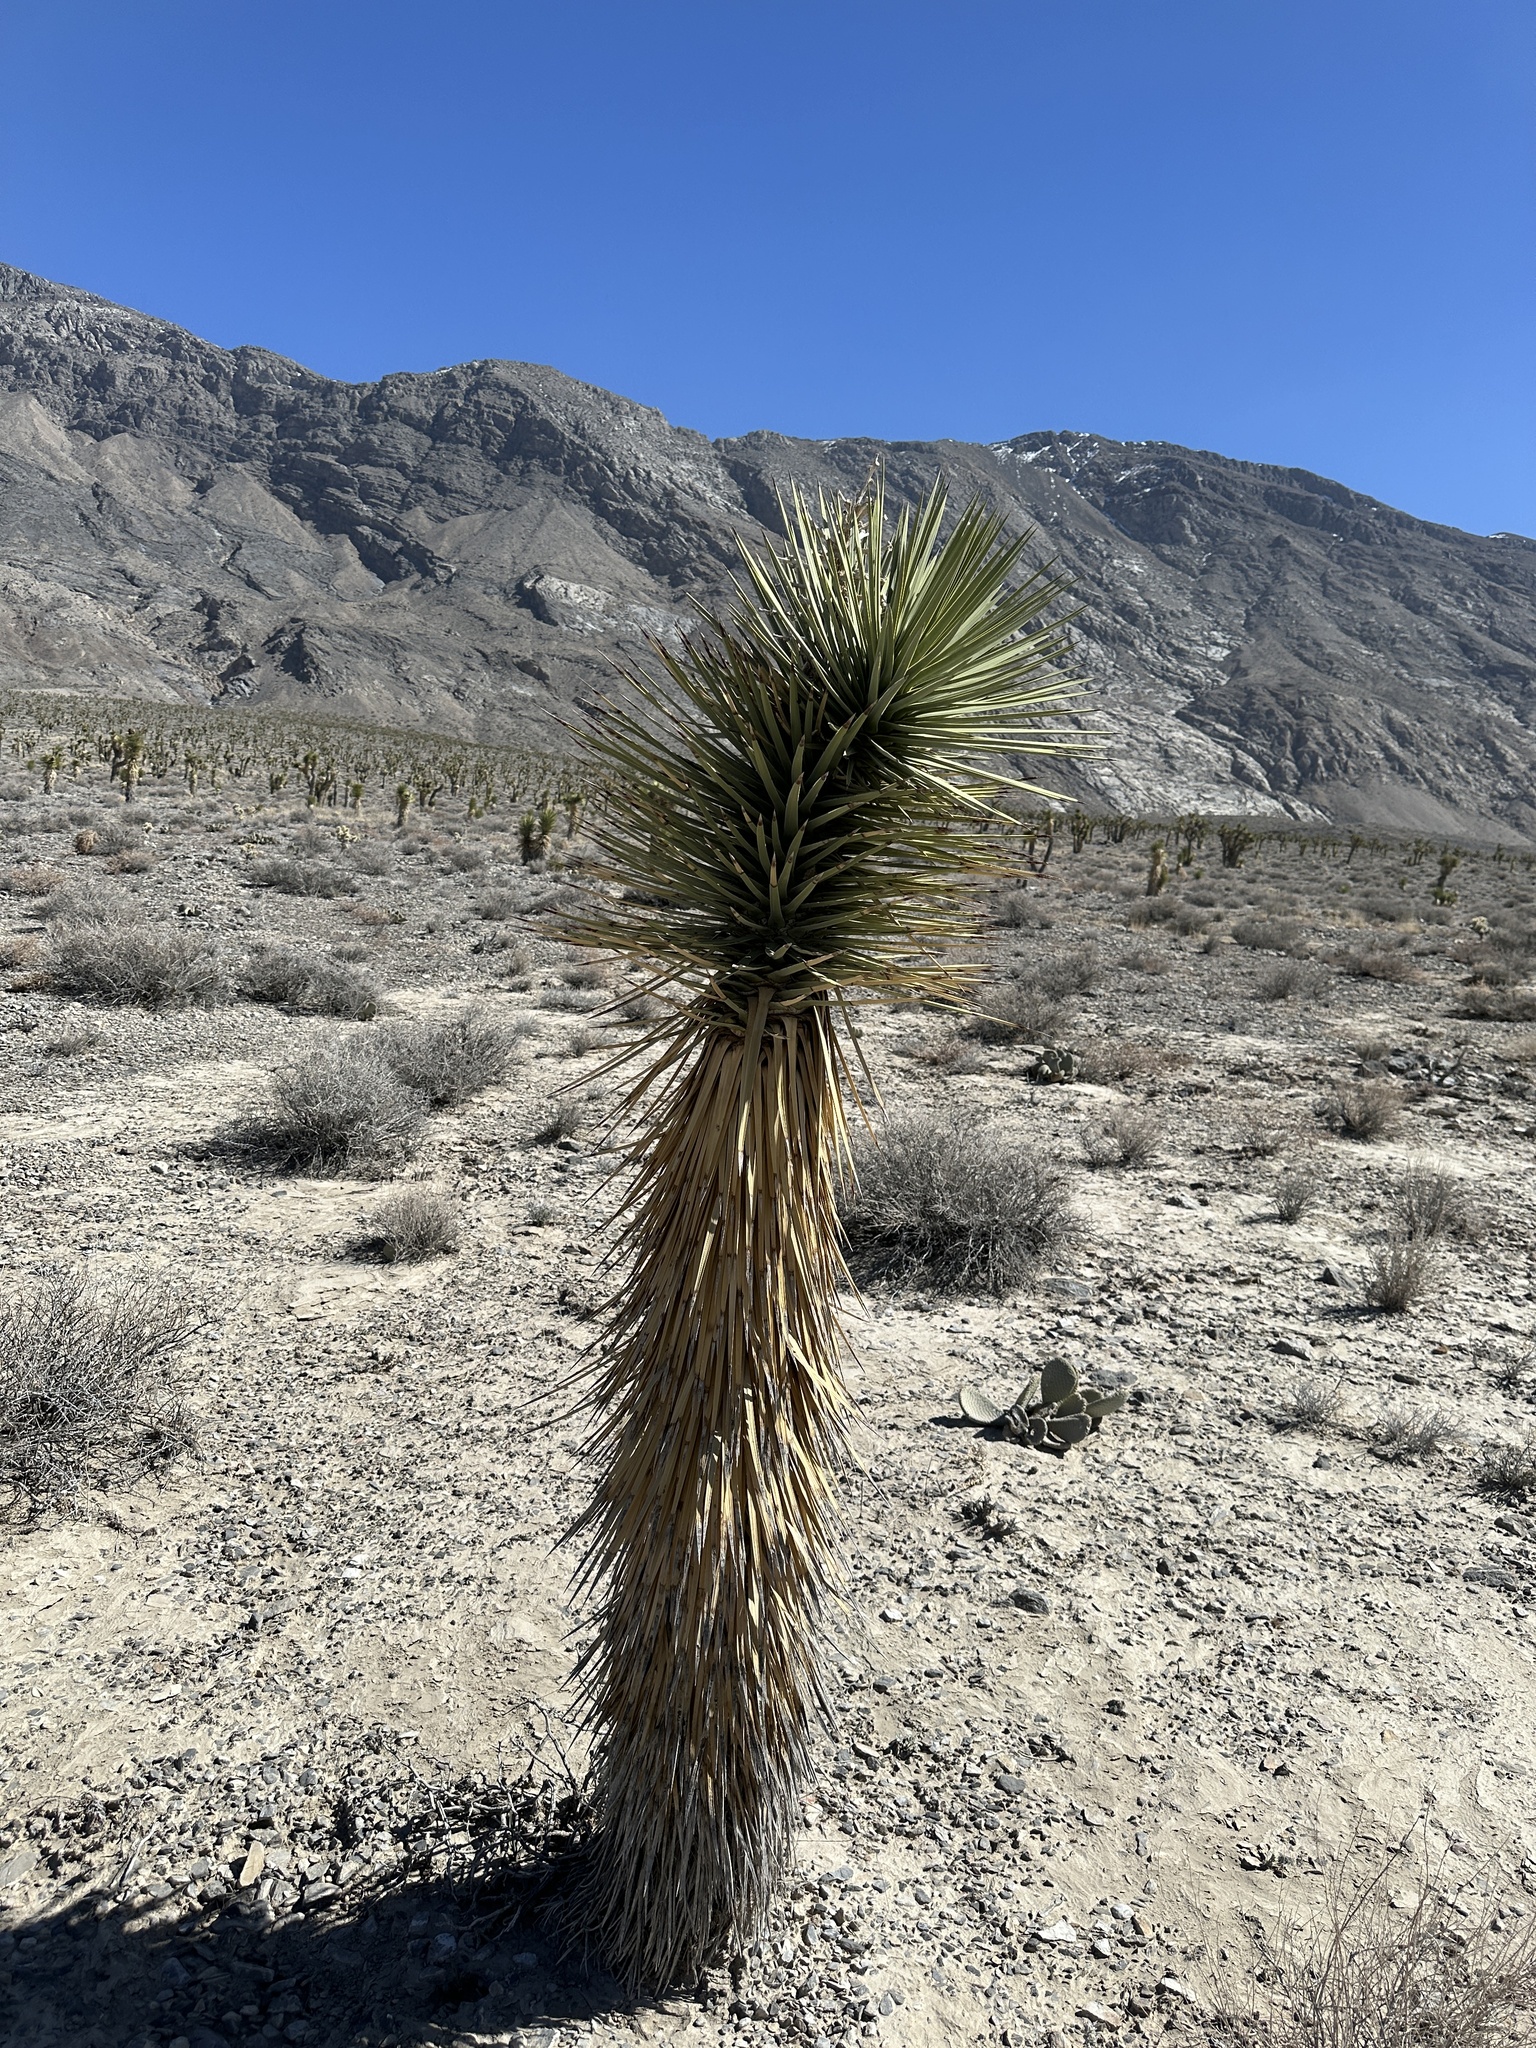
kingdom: Plantae
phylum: Tracheophyta
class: Liliopsida
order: Asparagales
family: Asparagaceae
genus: Yucca
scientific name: Yucca brevifolia
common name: Joshua tree
